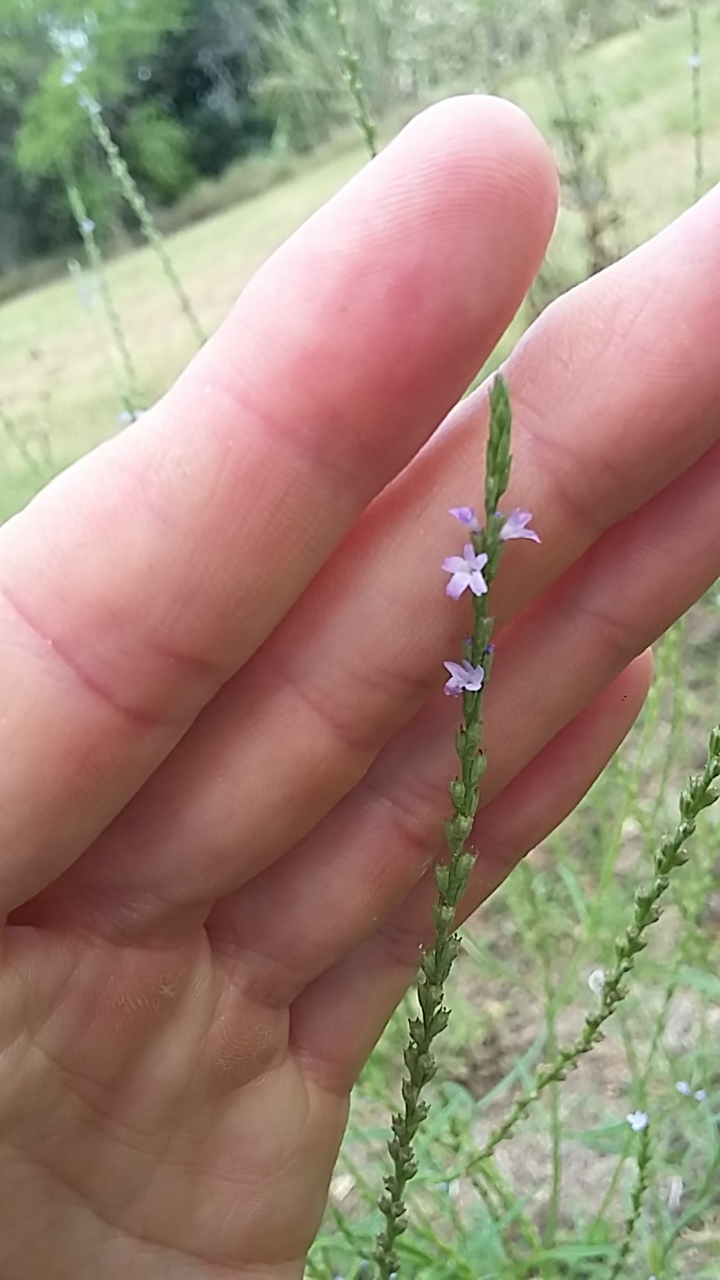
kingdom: Plantae
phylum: Tracheophyta
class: Magnoliopsida
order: Lamiales
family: Verbenaceae
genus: Verbena
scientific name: Verbena halei
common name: Texas vervain
